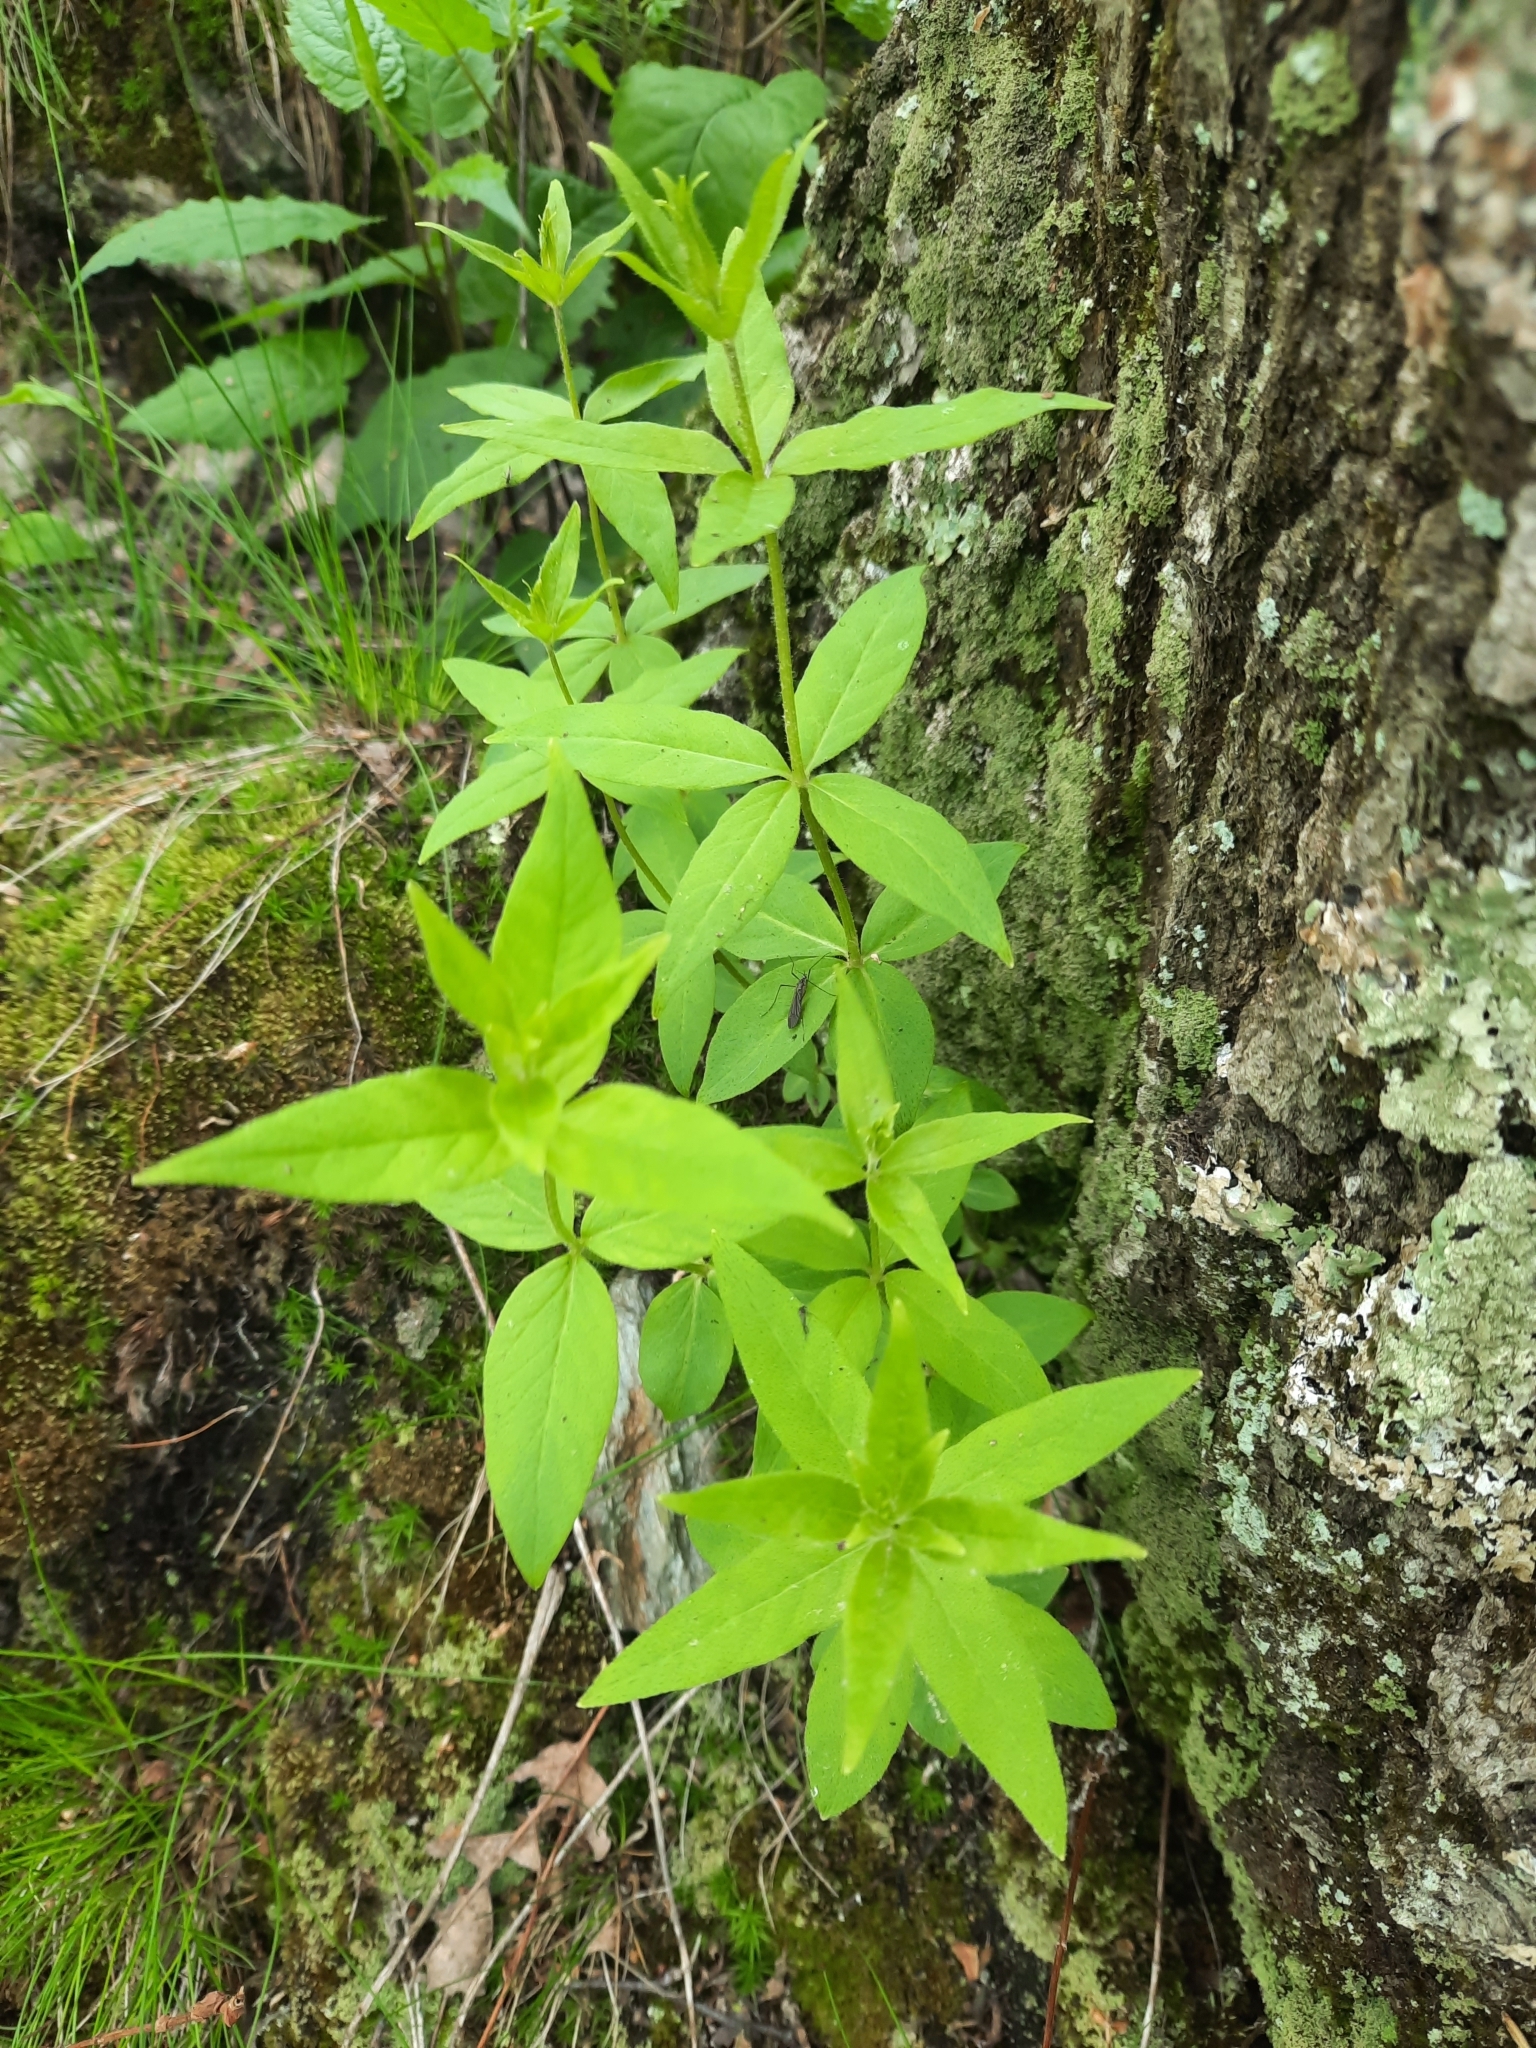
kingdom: Plantae
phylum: Tracheophyta
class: Magnoliopsida
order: Ericales
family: Primulaceae
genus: Lysimachia
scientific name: Lysimachia quadrifolia
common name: Whorled loosestrife
